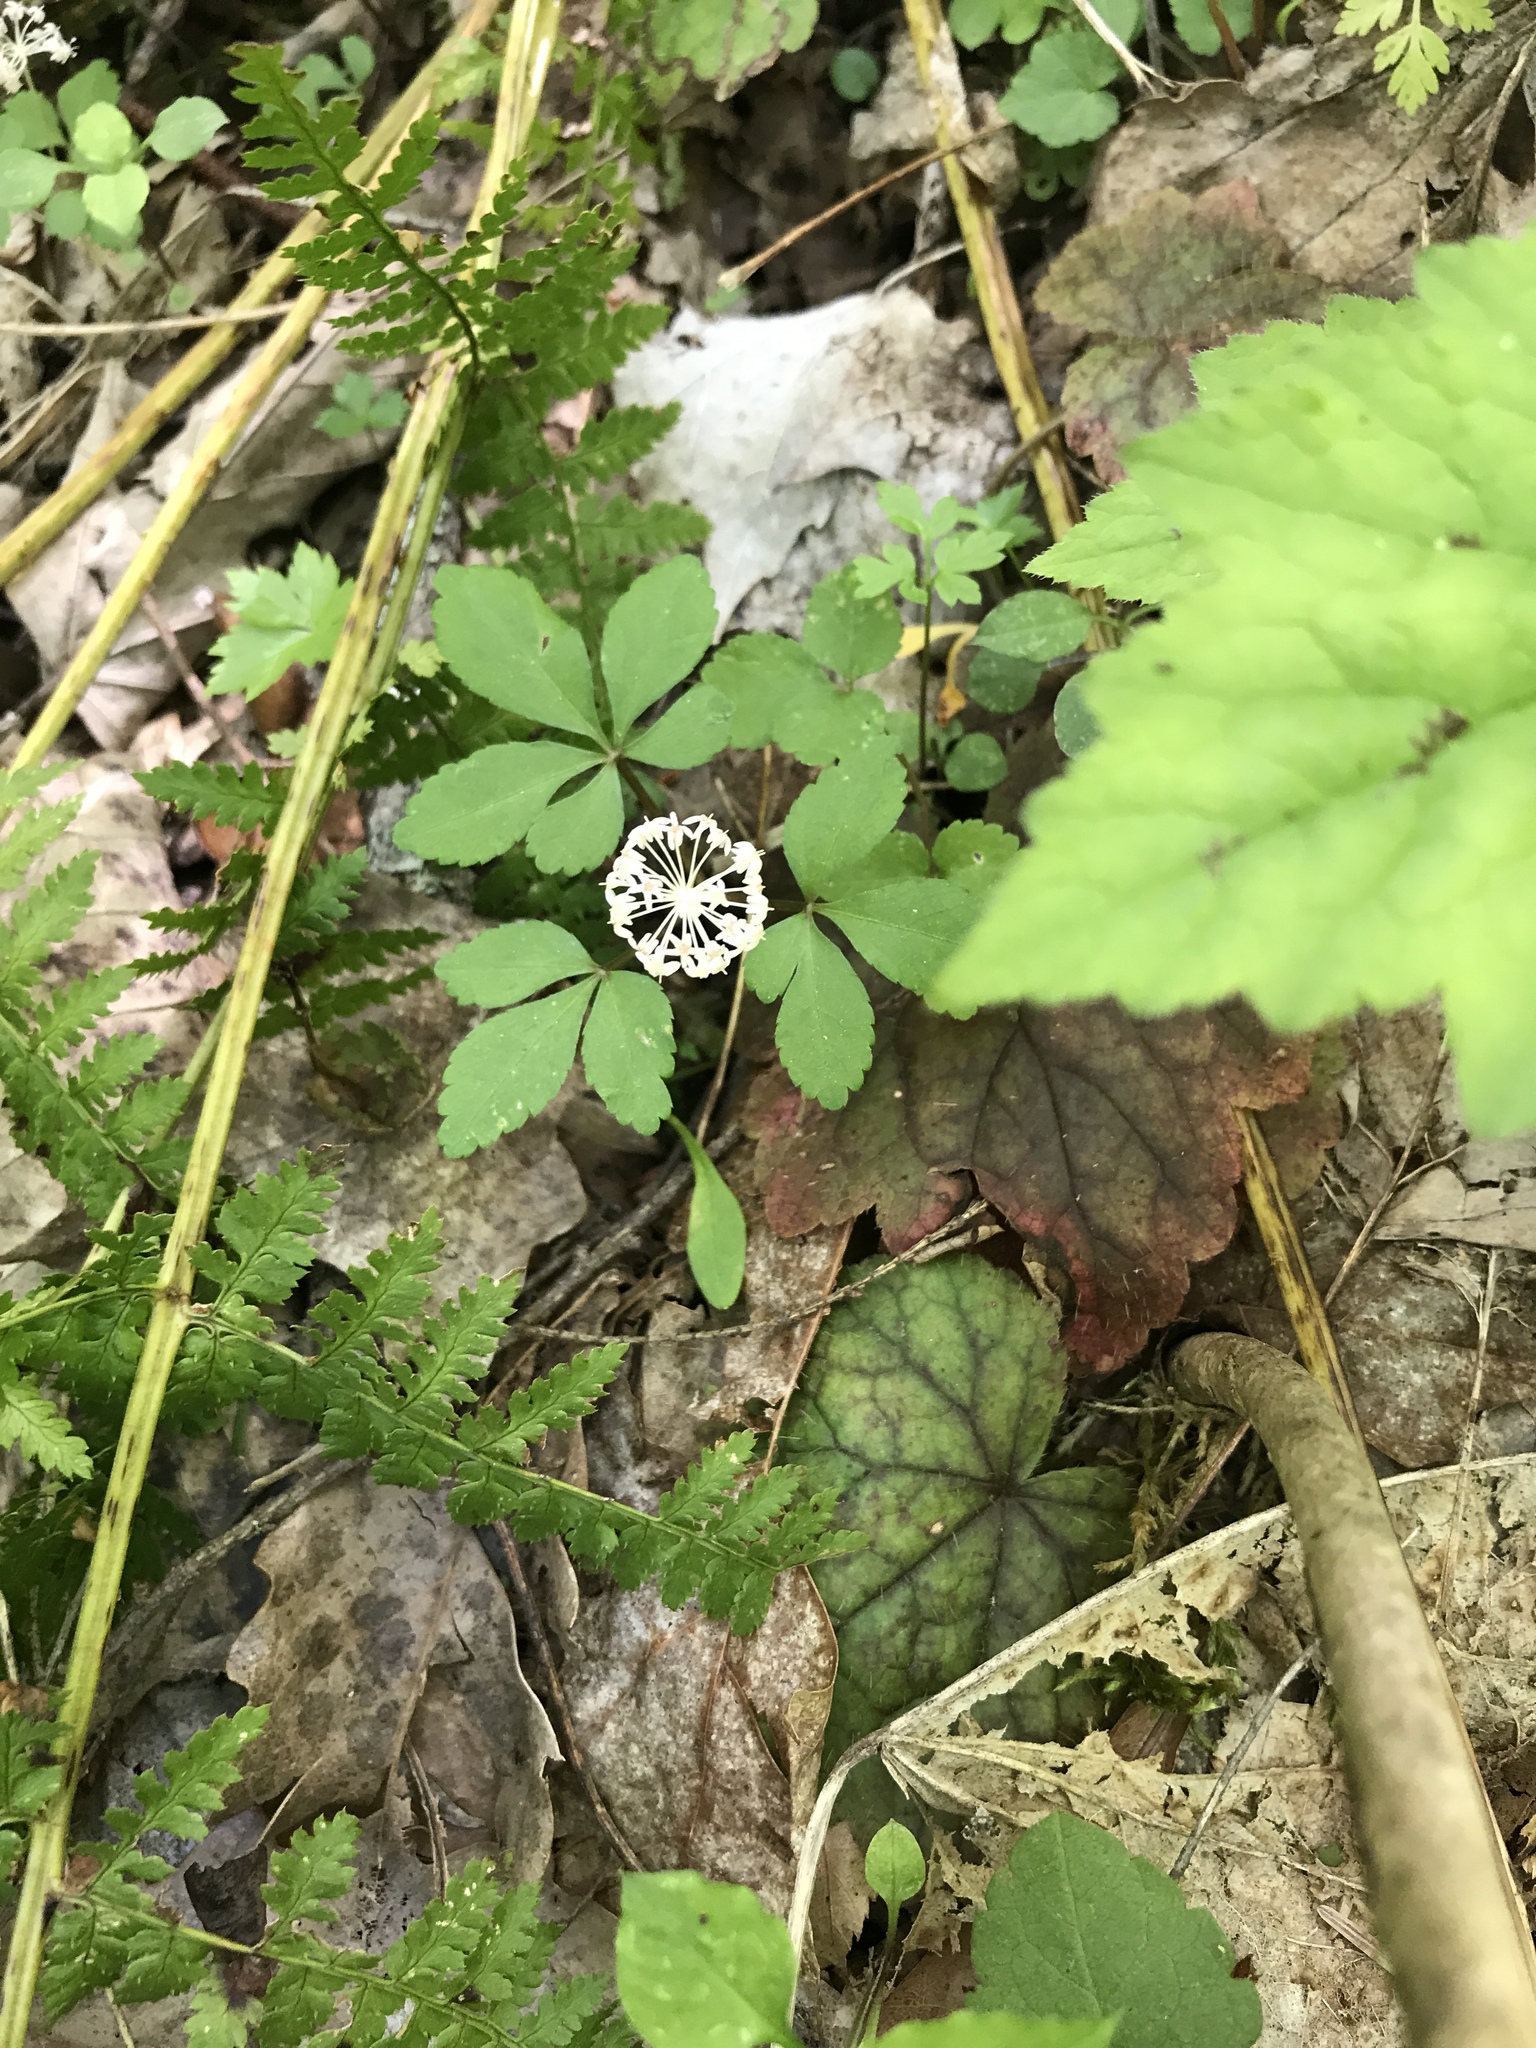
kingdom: Plantae
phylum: Tracheophyta
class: Magnoliopsida
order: Apiales
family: Araliaceae
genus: Panax
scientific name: Panax trifolius
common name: Dwarf ginseng
